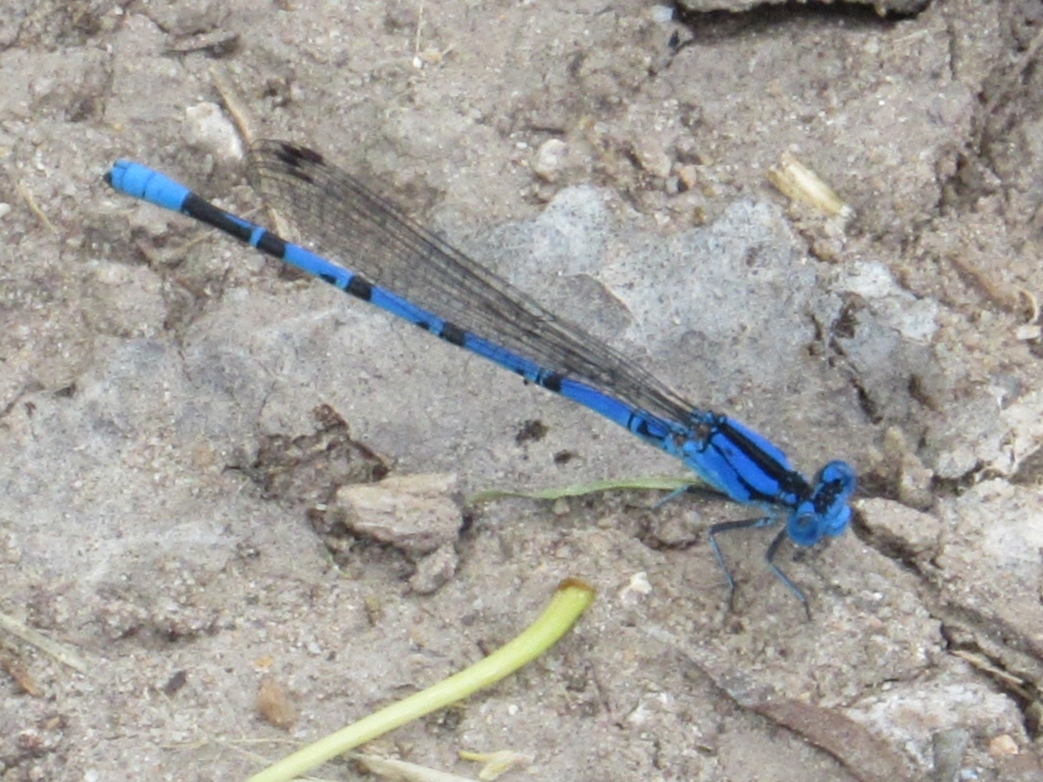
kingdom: Animalia
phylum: Arthropoda
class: Insecta
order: Odonata
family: Coenagrionidae
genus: Argia
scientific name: Argia funebris
